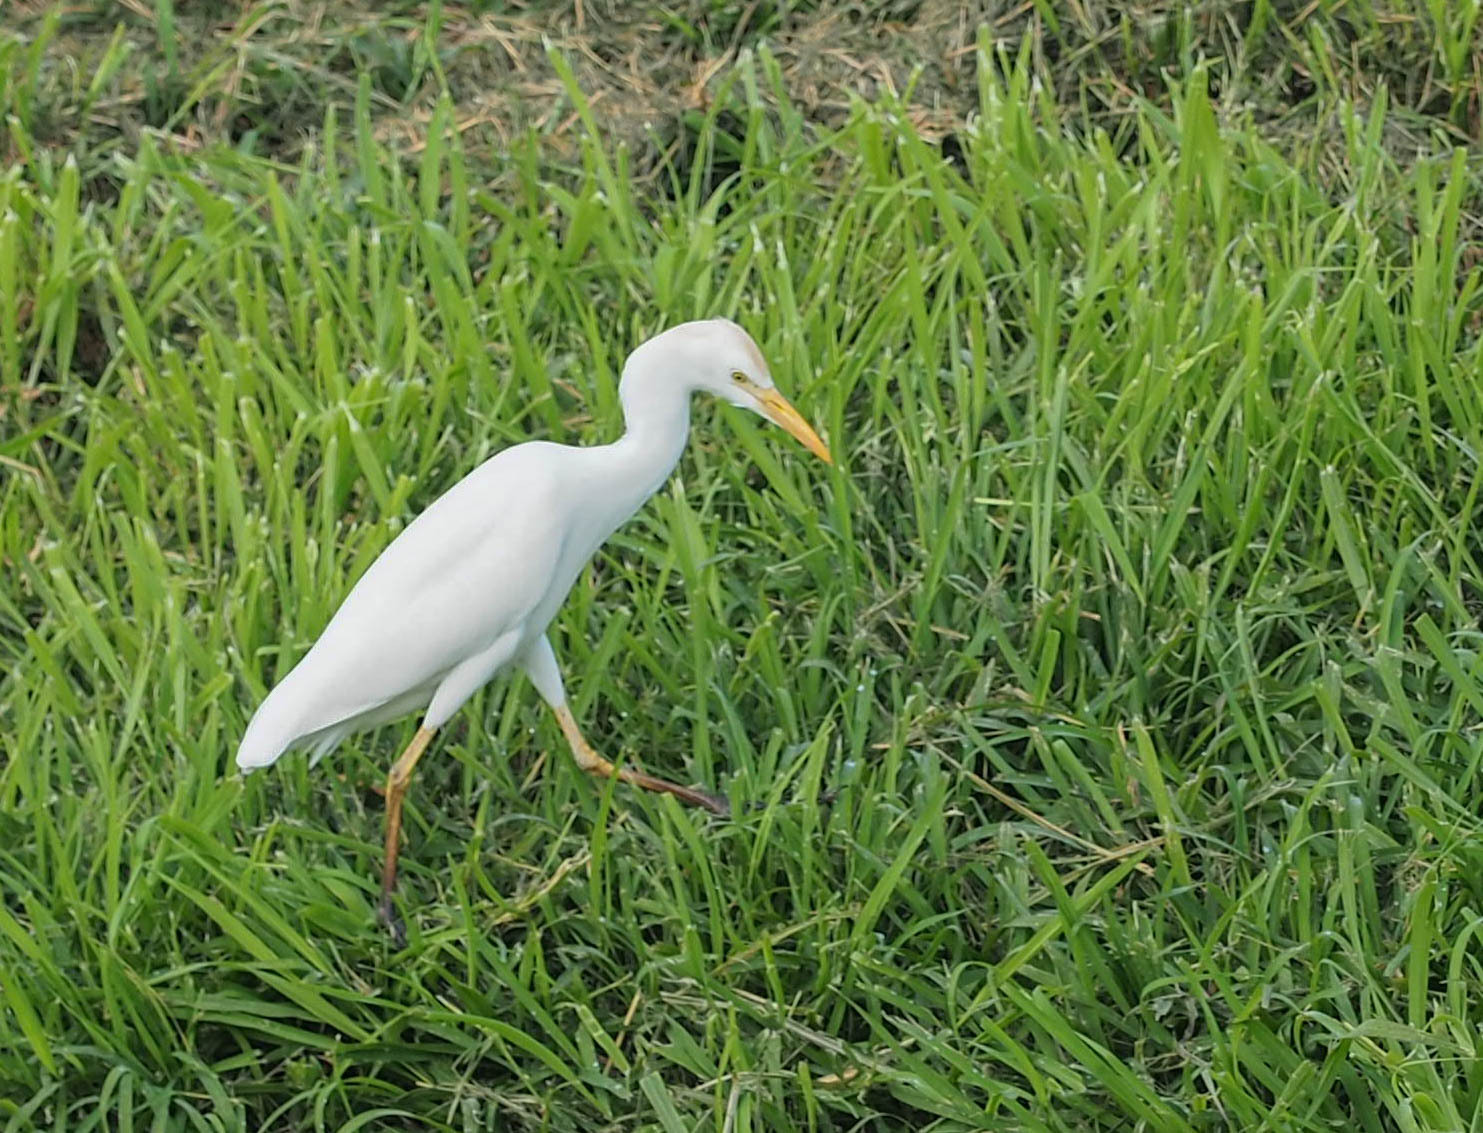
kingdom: Animalia
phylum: Chordata
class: Aves
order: Pelecaniformes
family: Ardeidae
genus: Bubulcus
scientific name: Bubulcus ibis
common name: Cattle egret
